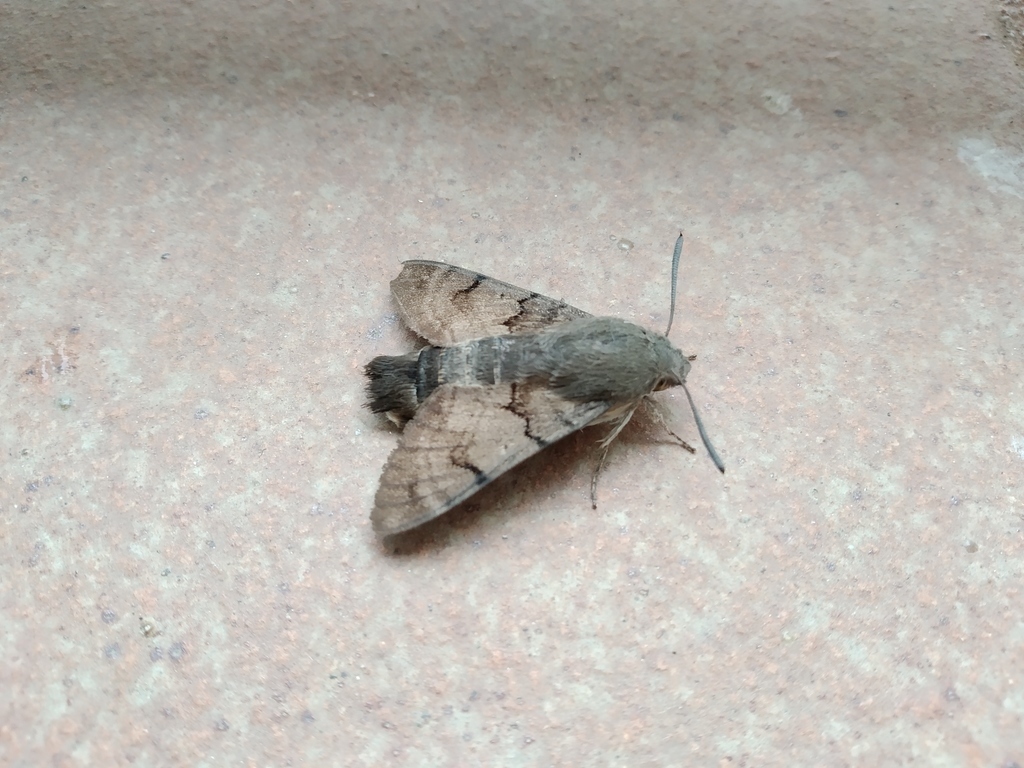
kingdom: Animalia
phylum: Arthropoda
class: Insecta
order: Lepidoptera
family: Sphingidae
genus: Macroglossum
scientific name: Macroglossum stellatarum
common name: Humming-bird hawk-moth
